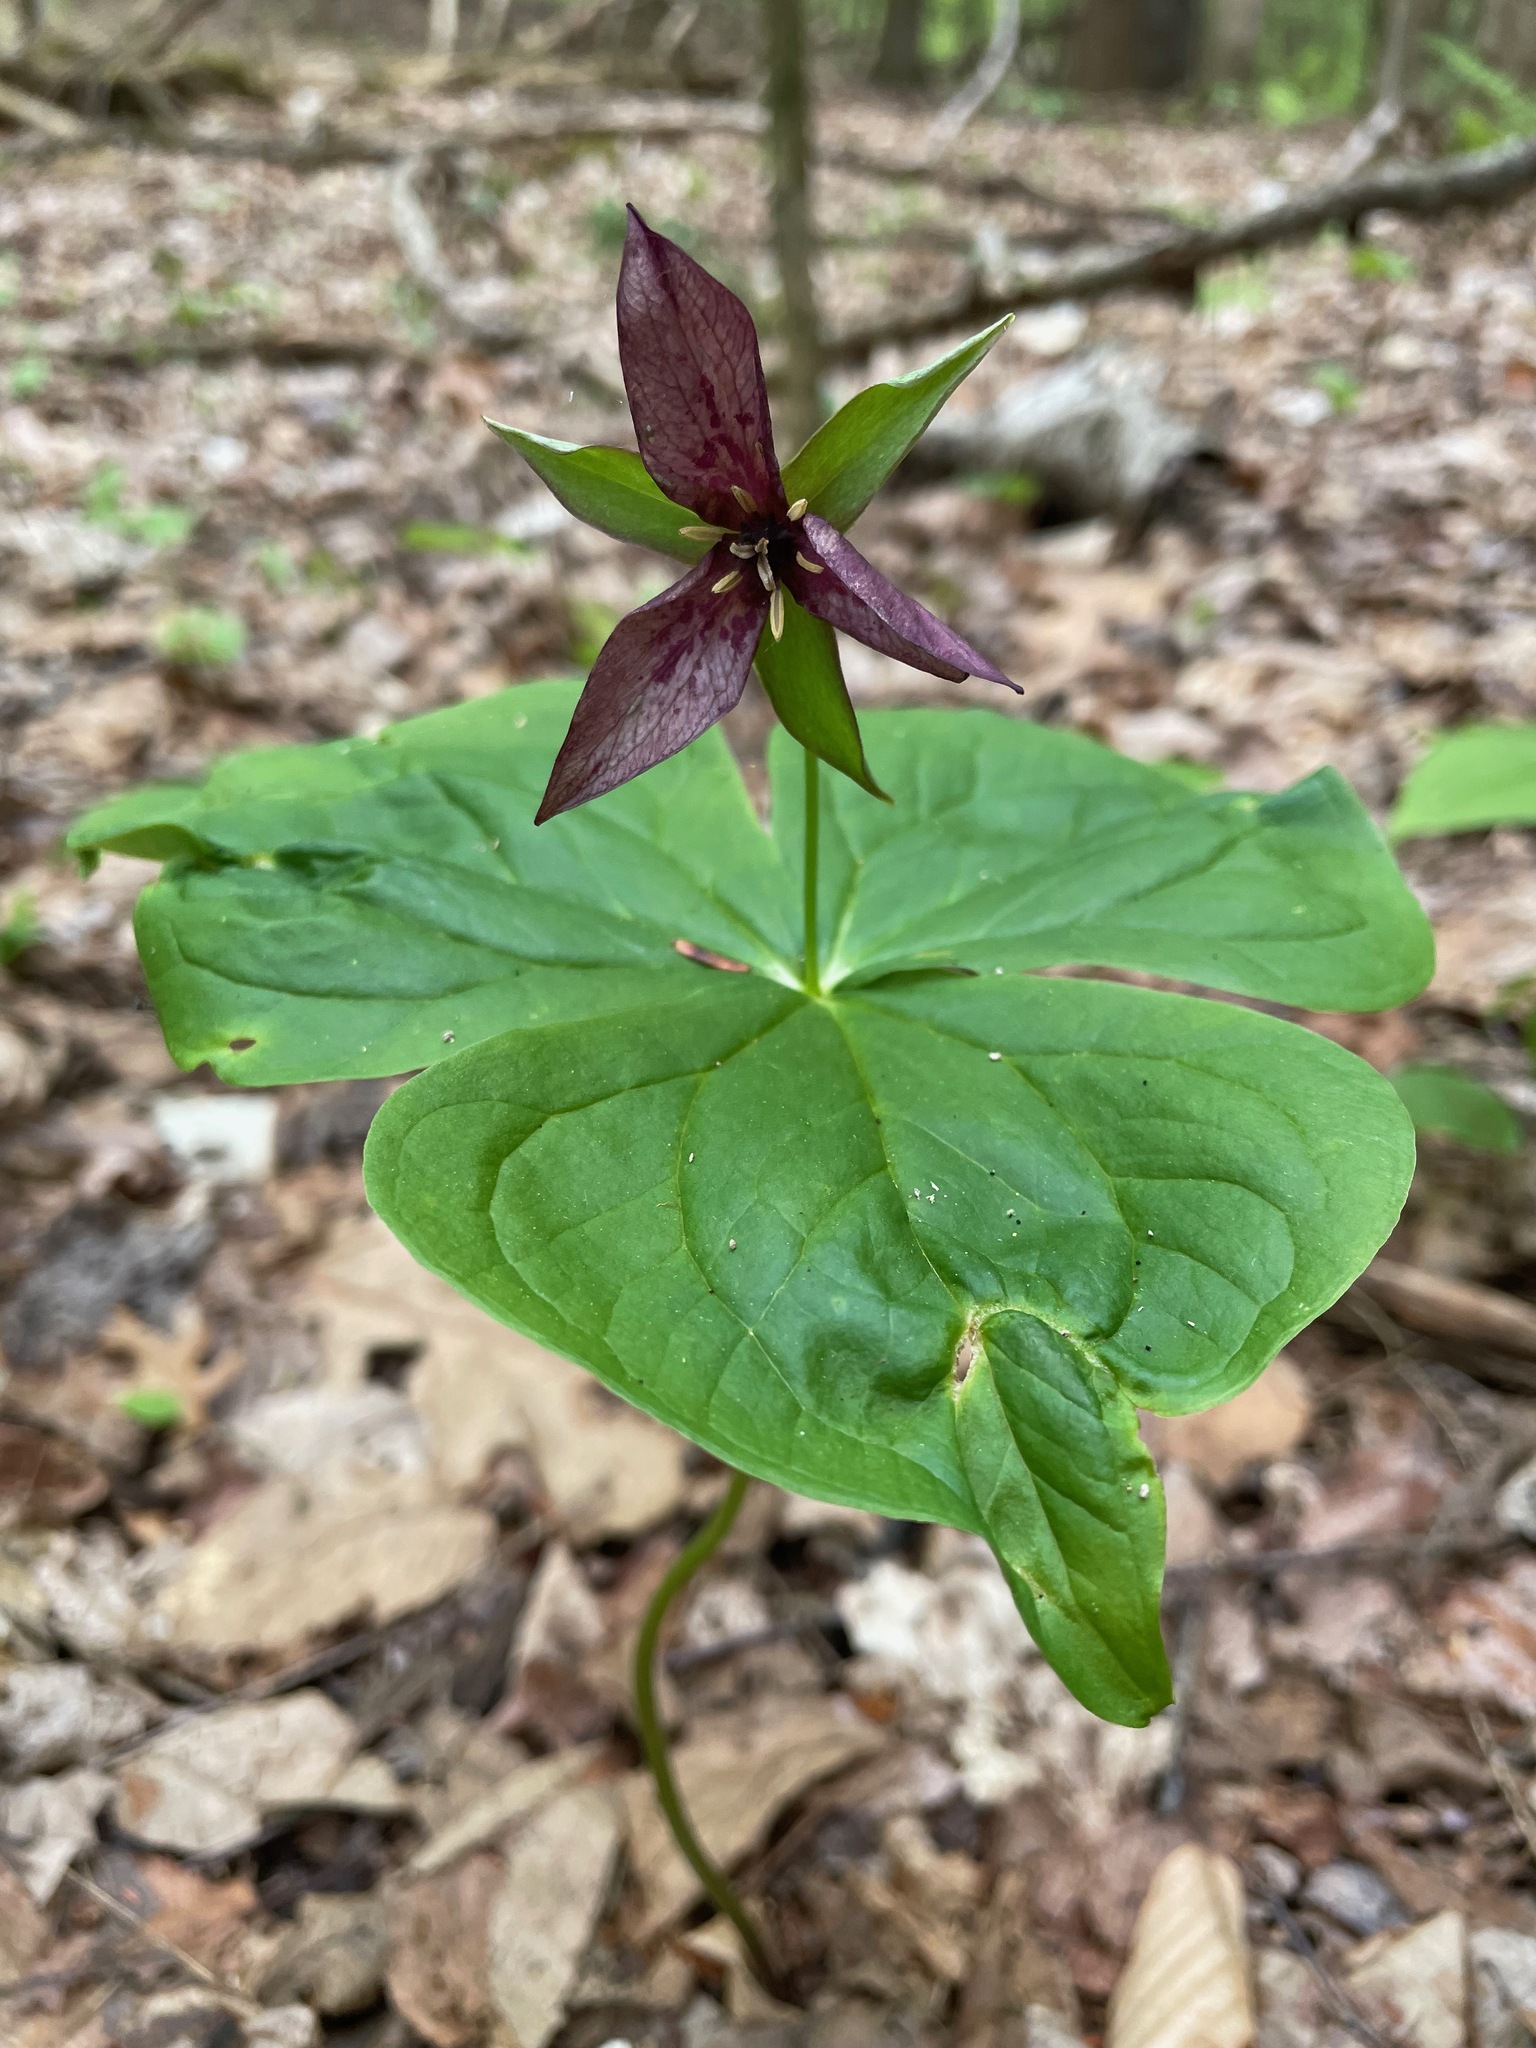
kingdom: Plantae
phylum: Tracheophyta
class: Liliopsida
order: Liliales
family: Melanthiaceae
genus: Trillium
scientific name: Trillium erectum
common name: Purple trillium
